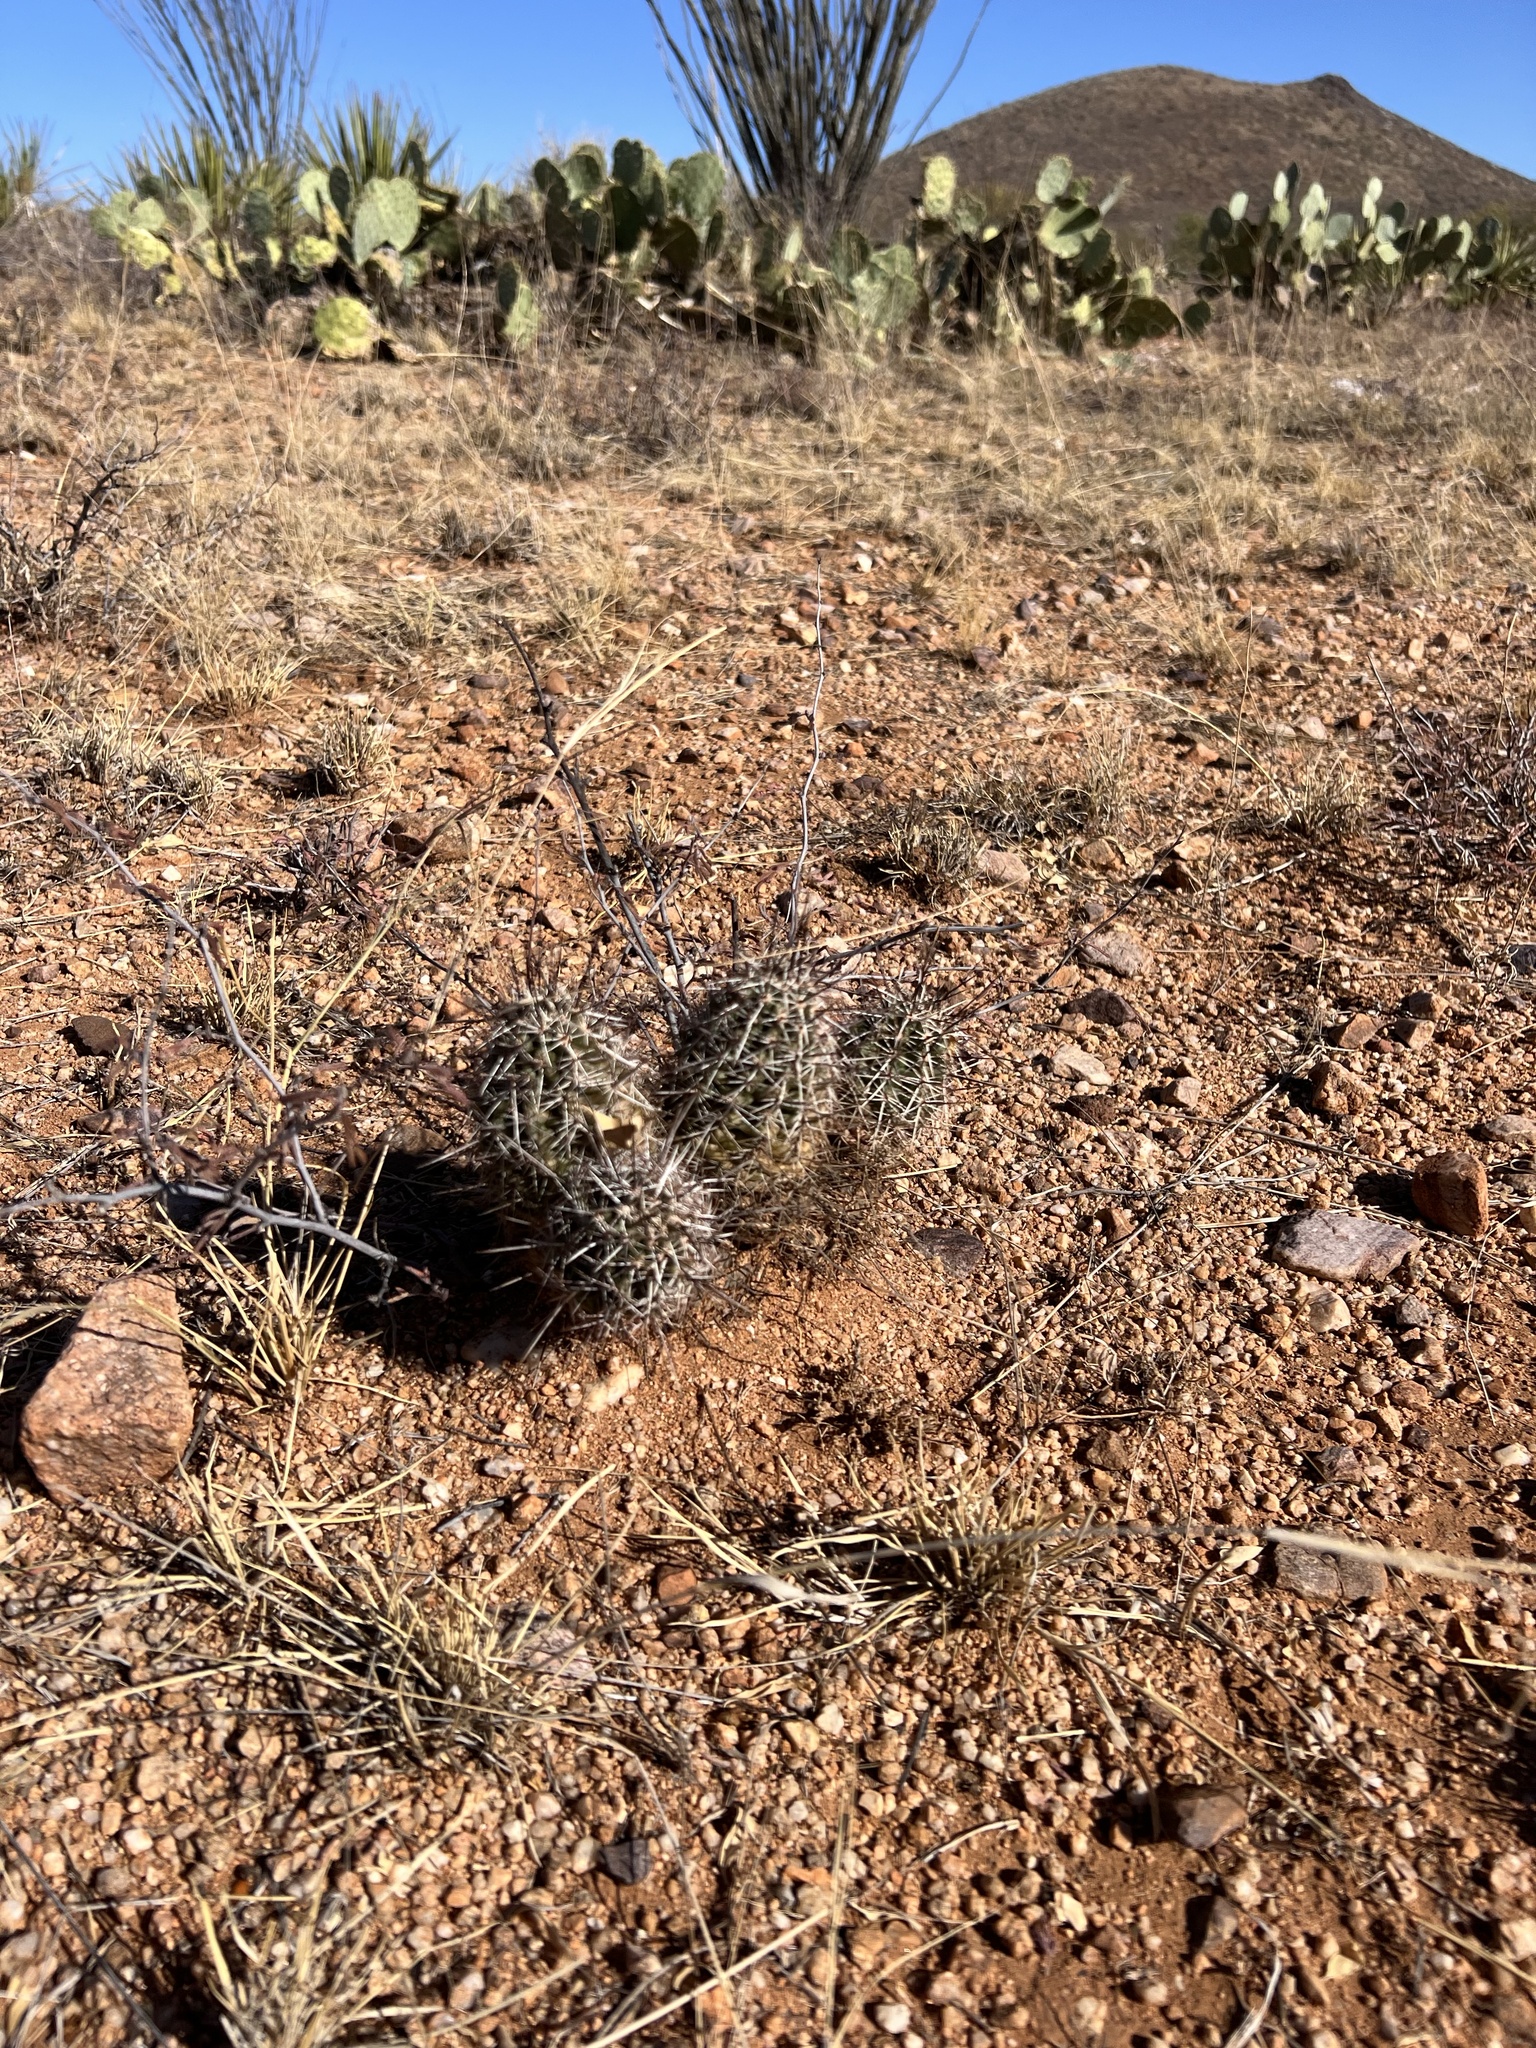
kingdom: Plantae
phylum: Tracheophyta
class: Magnoliopsida
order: Caryophyllales
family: Cactaceae
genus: Echinocereus
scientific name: Echinocereus fasciculatus
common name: Bundle hedgehog
